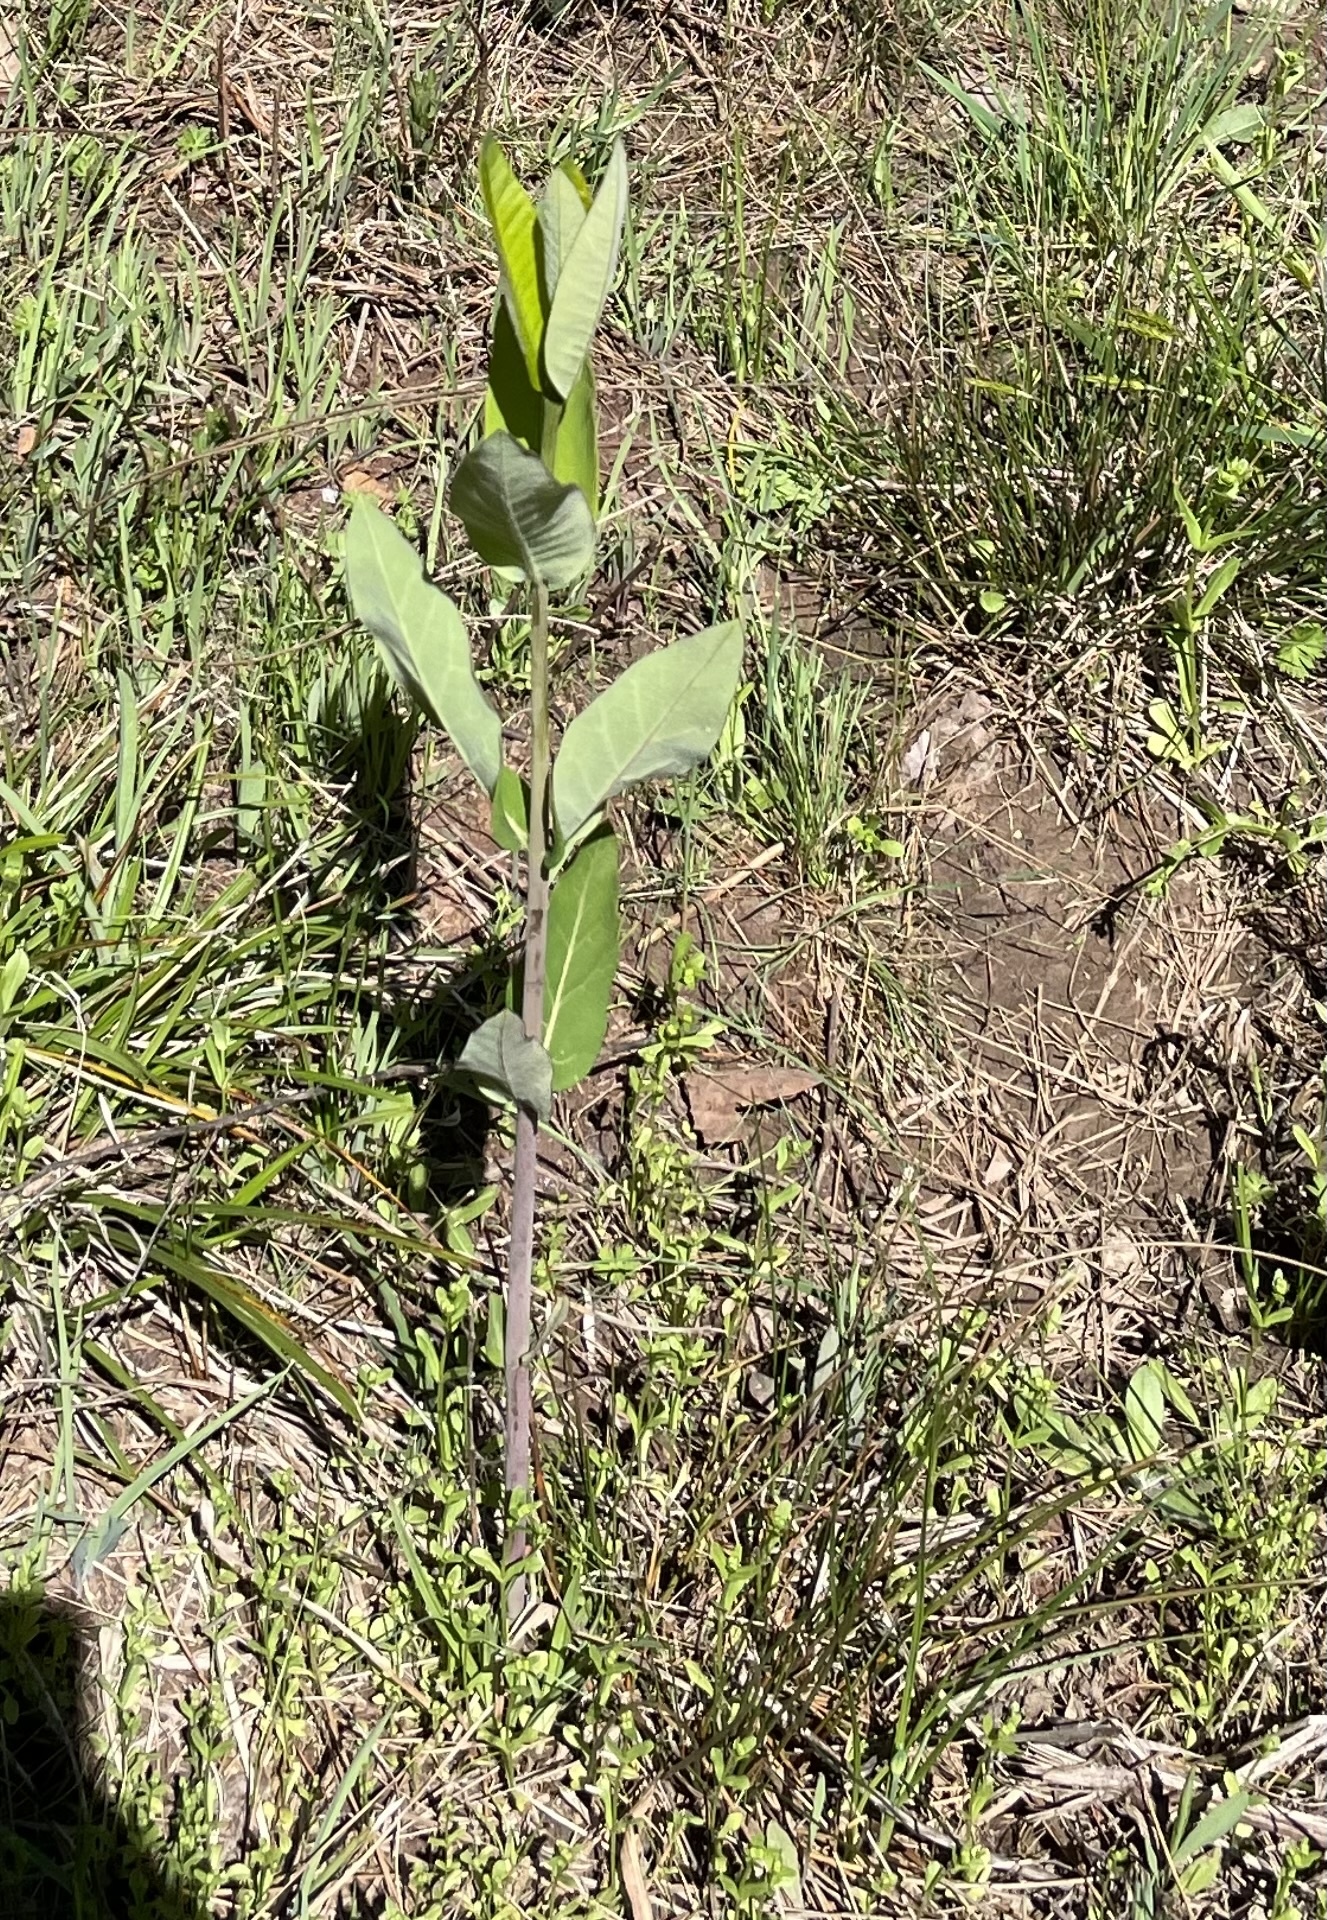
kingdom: Plantae
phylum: Tracheophyta
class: Magnoliopsida
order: Gentianales
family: Apocynaceae
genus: Apocynum
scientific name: Apocynum cannabinum
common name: Hemp dogbane
